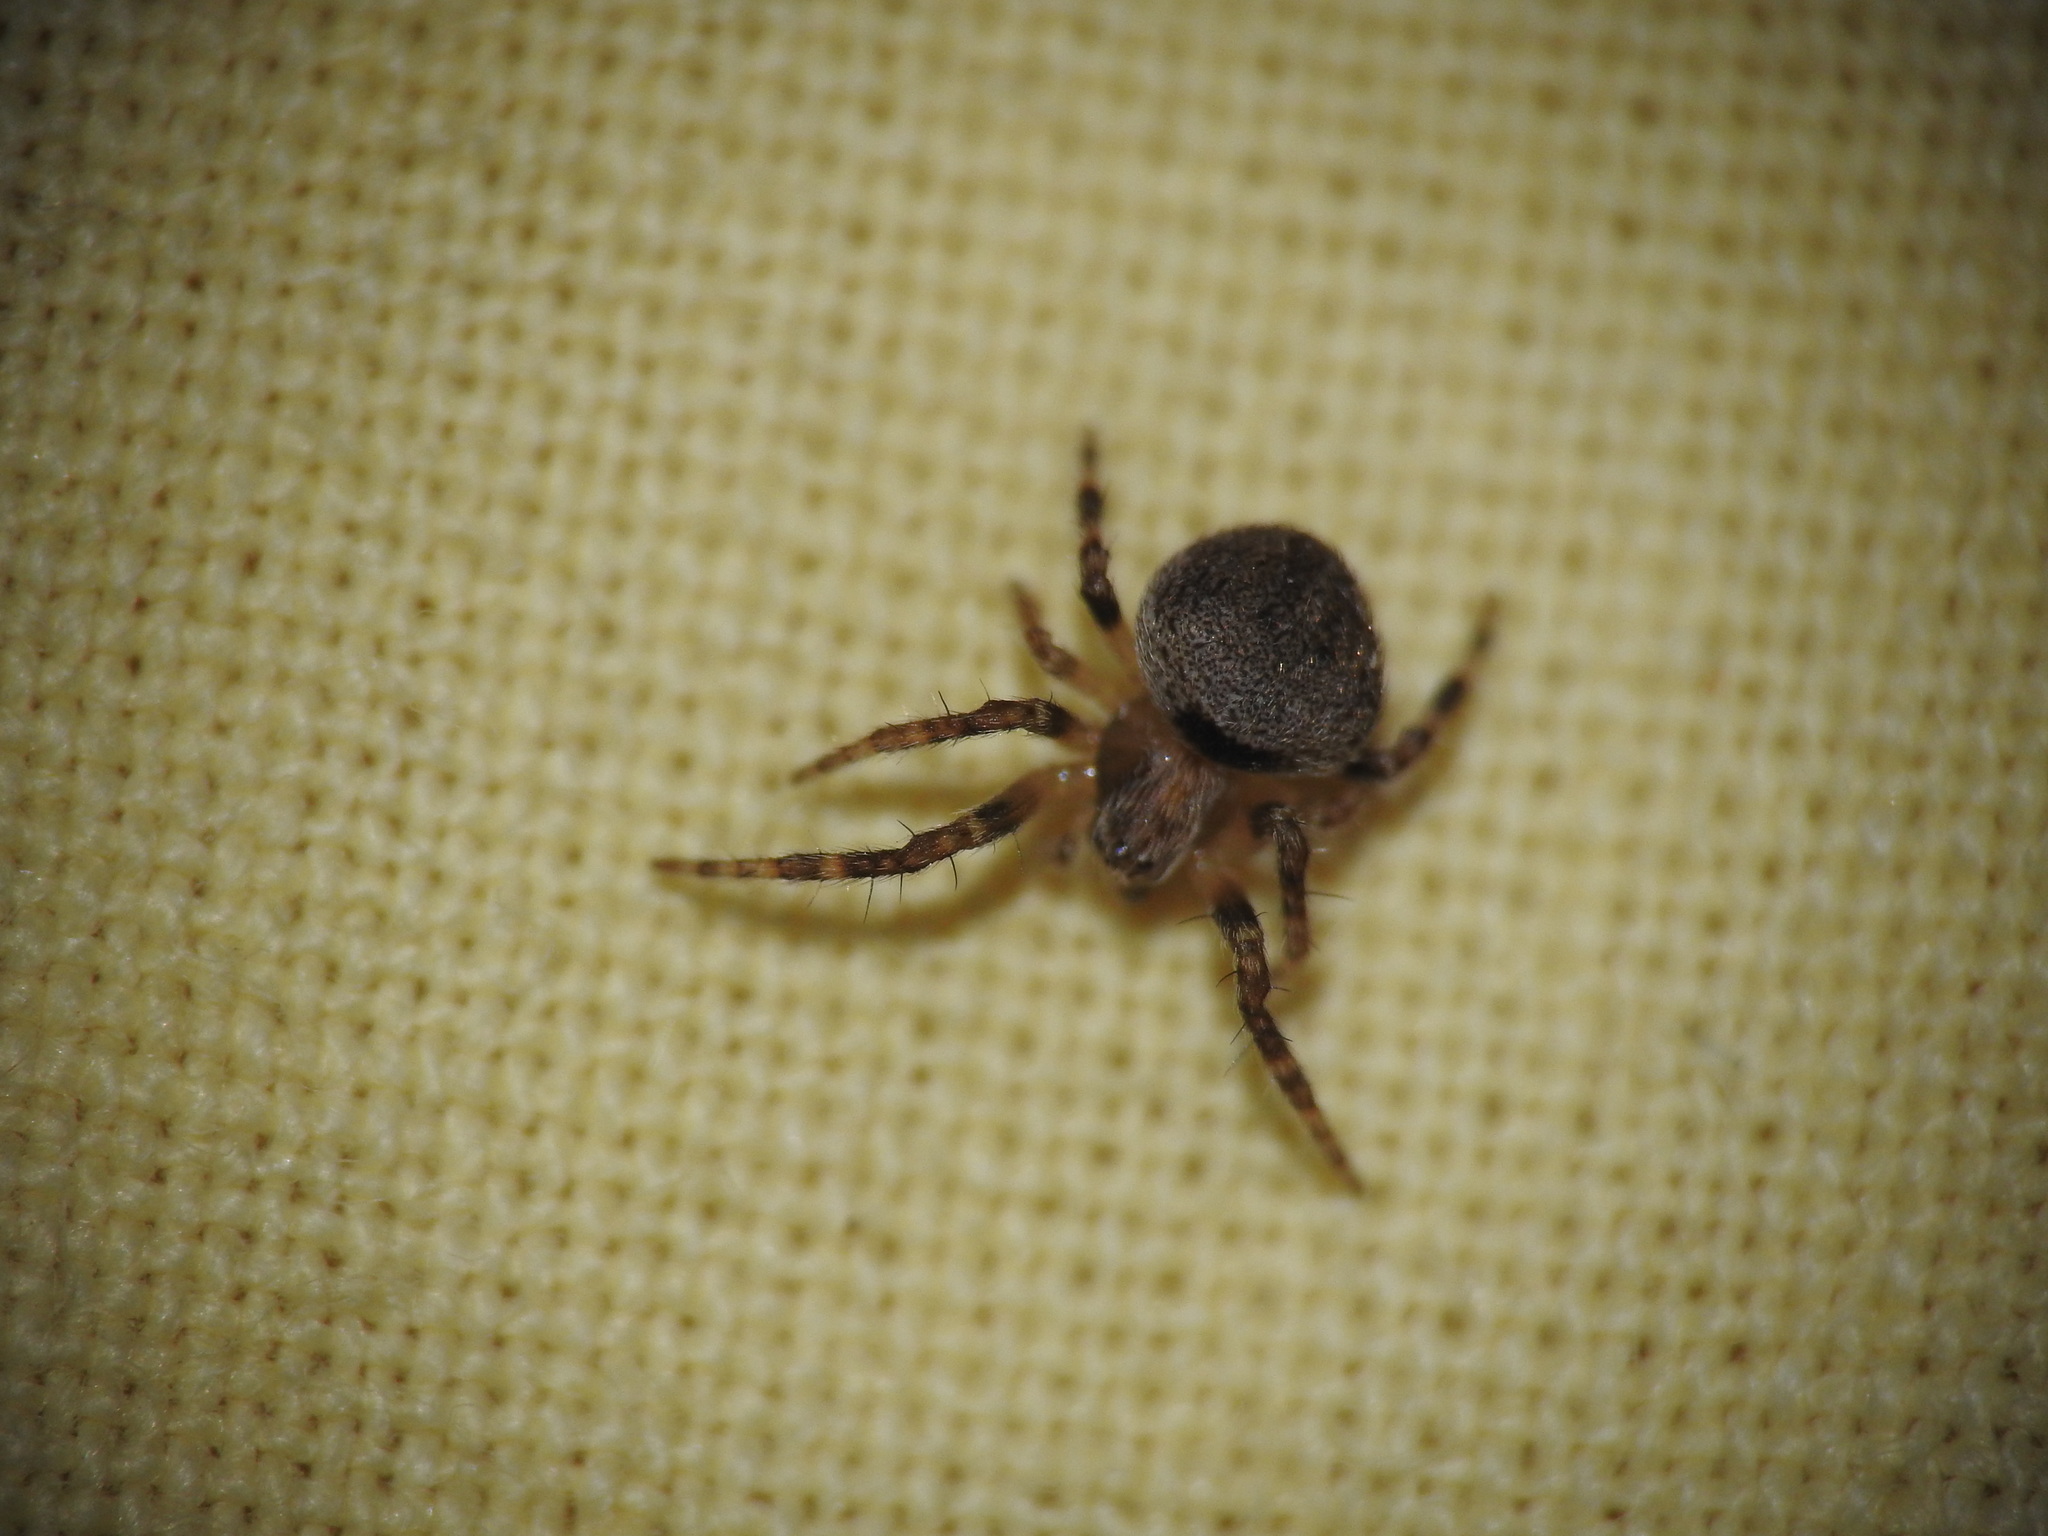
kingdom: Animalia
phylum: Arthropoda
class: Arachnida
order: Araneae
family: Araneidae
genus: Neoscona
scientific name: Neoscona subfusca
